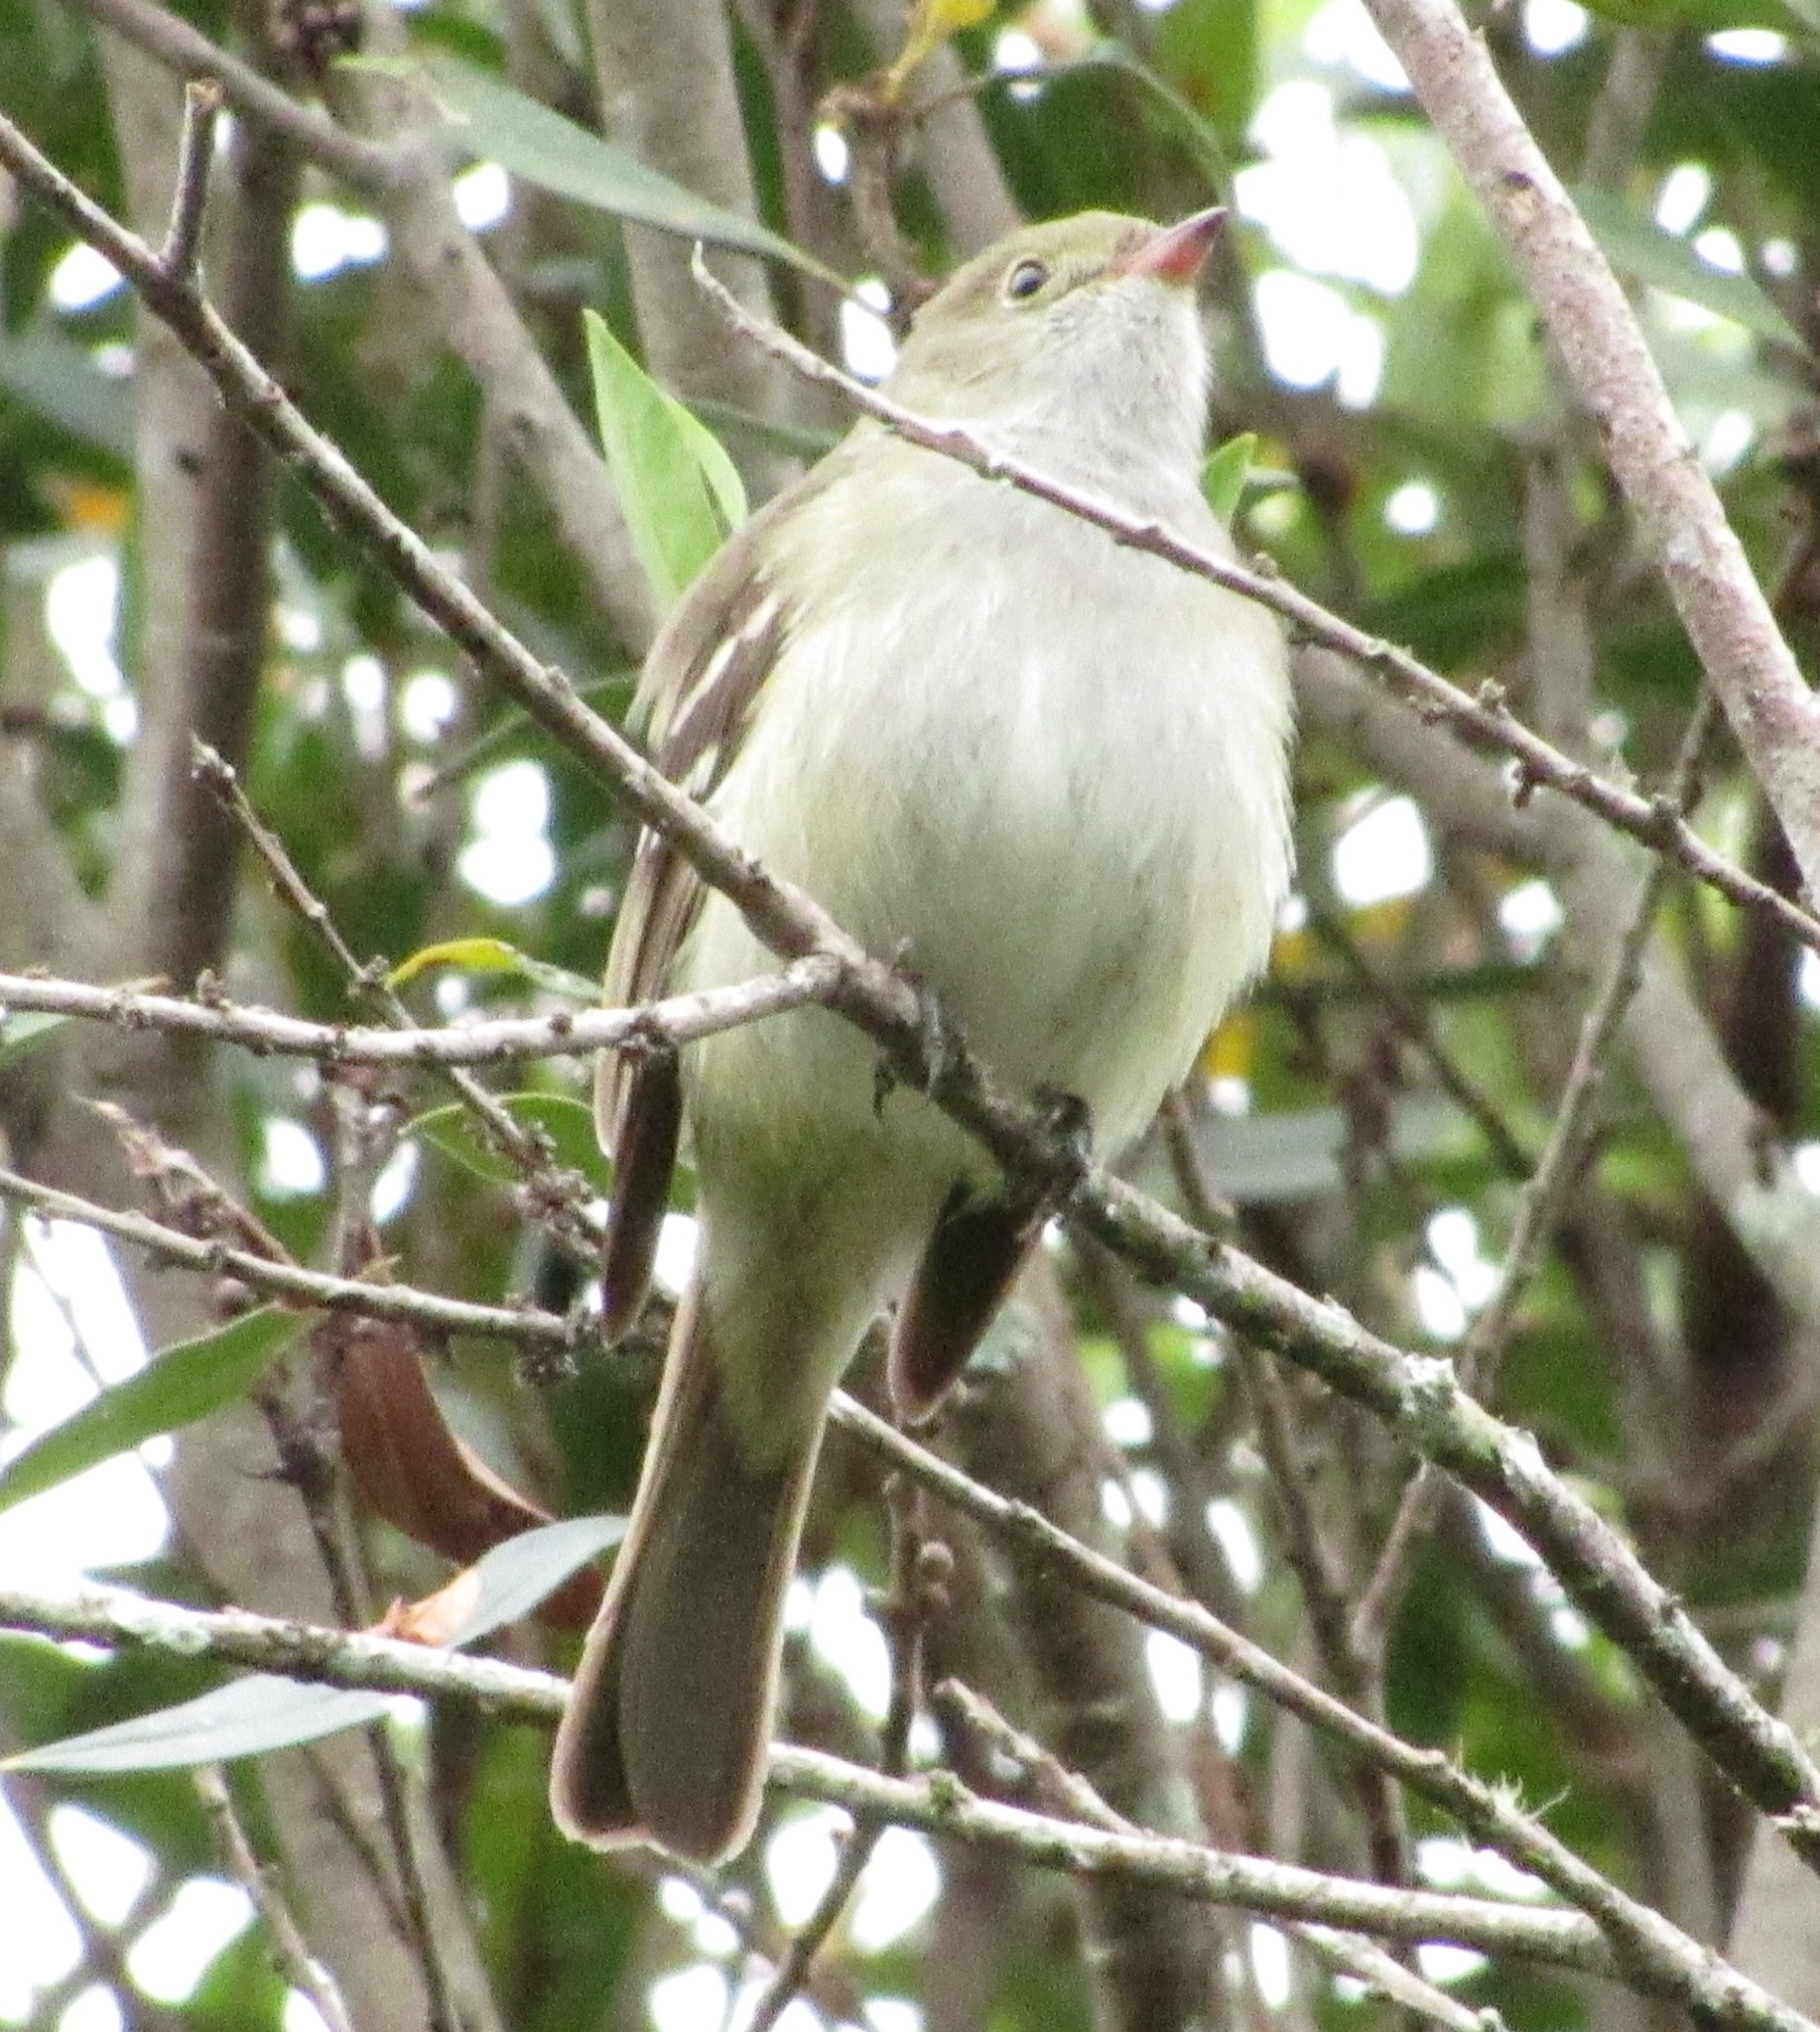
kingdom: Animalia
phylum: Chordata
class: Aves
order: Passeriformes
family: Tyrannidae
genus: Elaenia
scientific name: Elaenia parvirostris
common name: Small-billed elaenia
